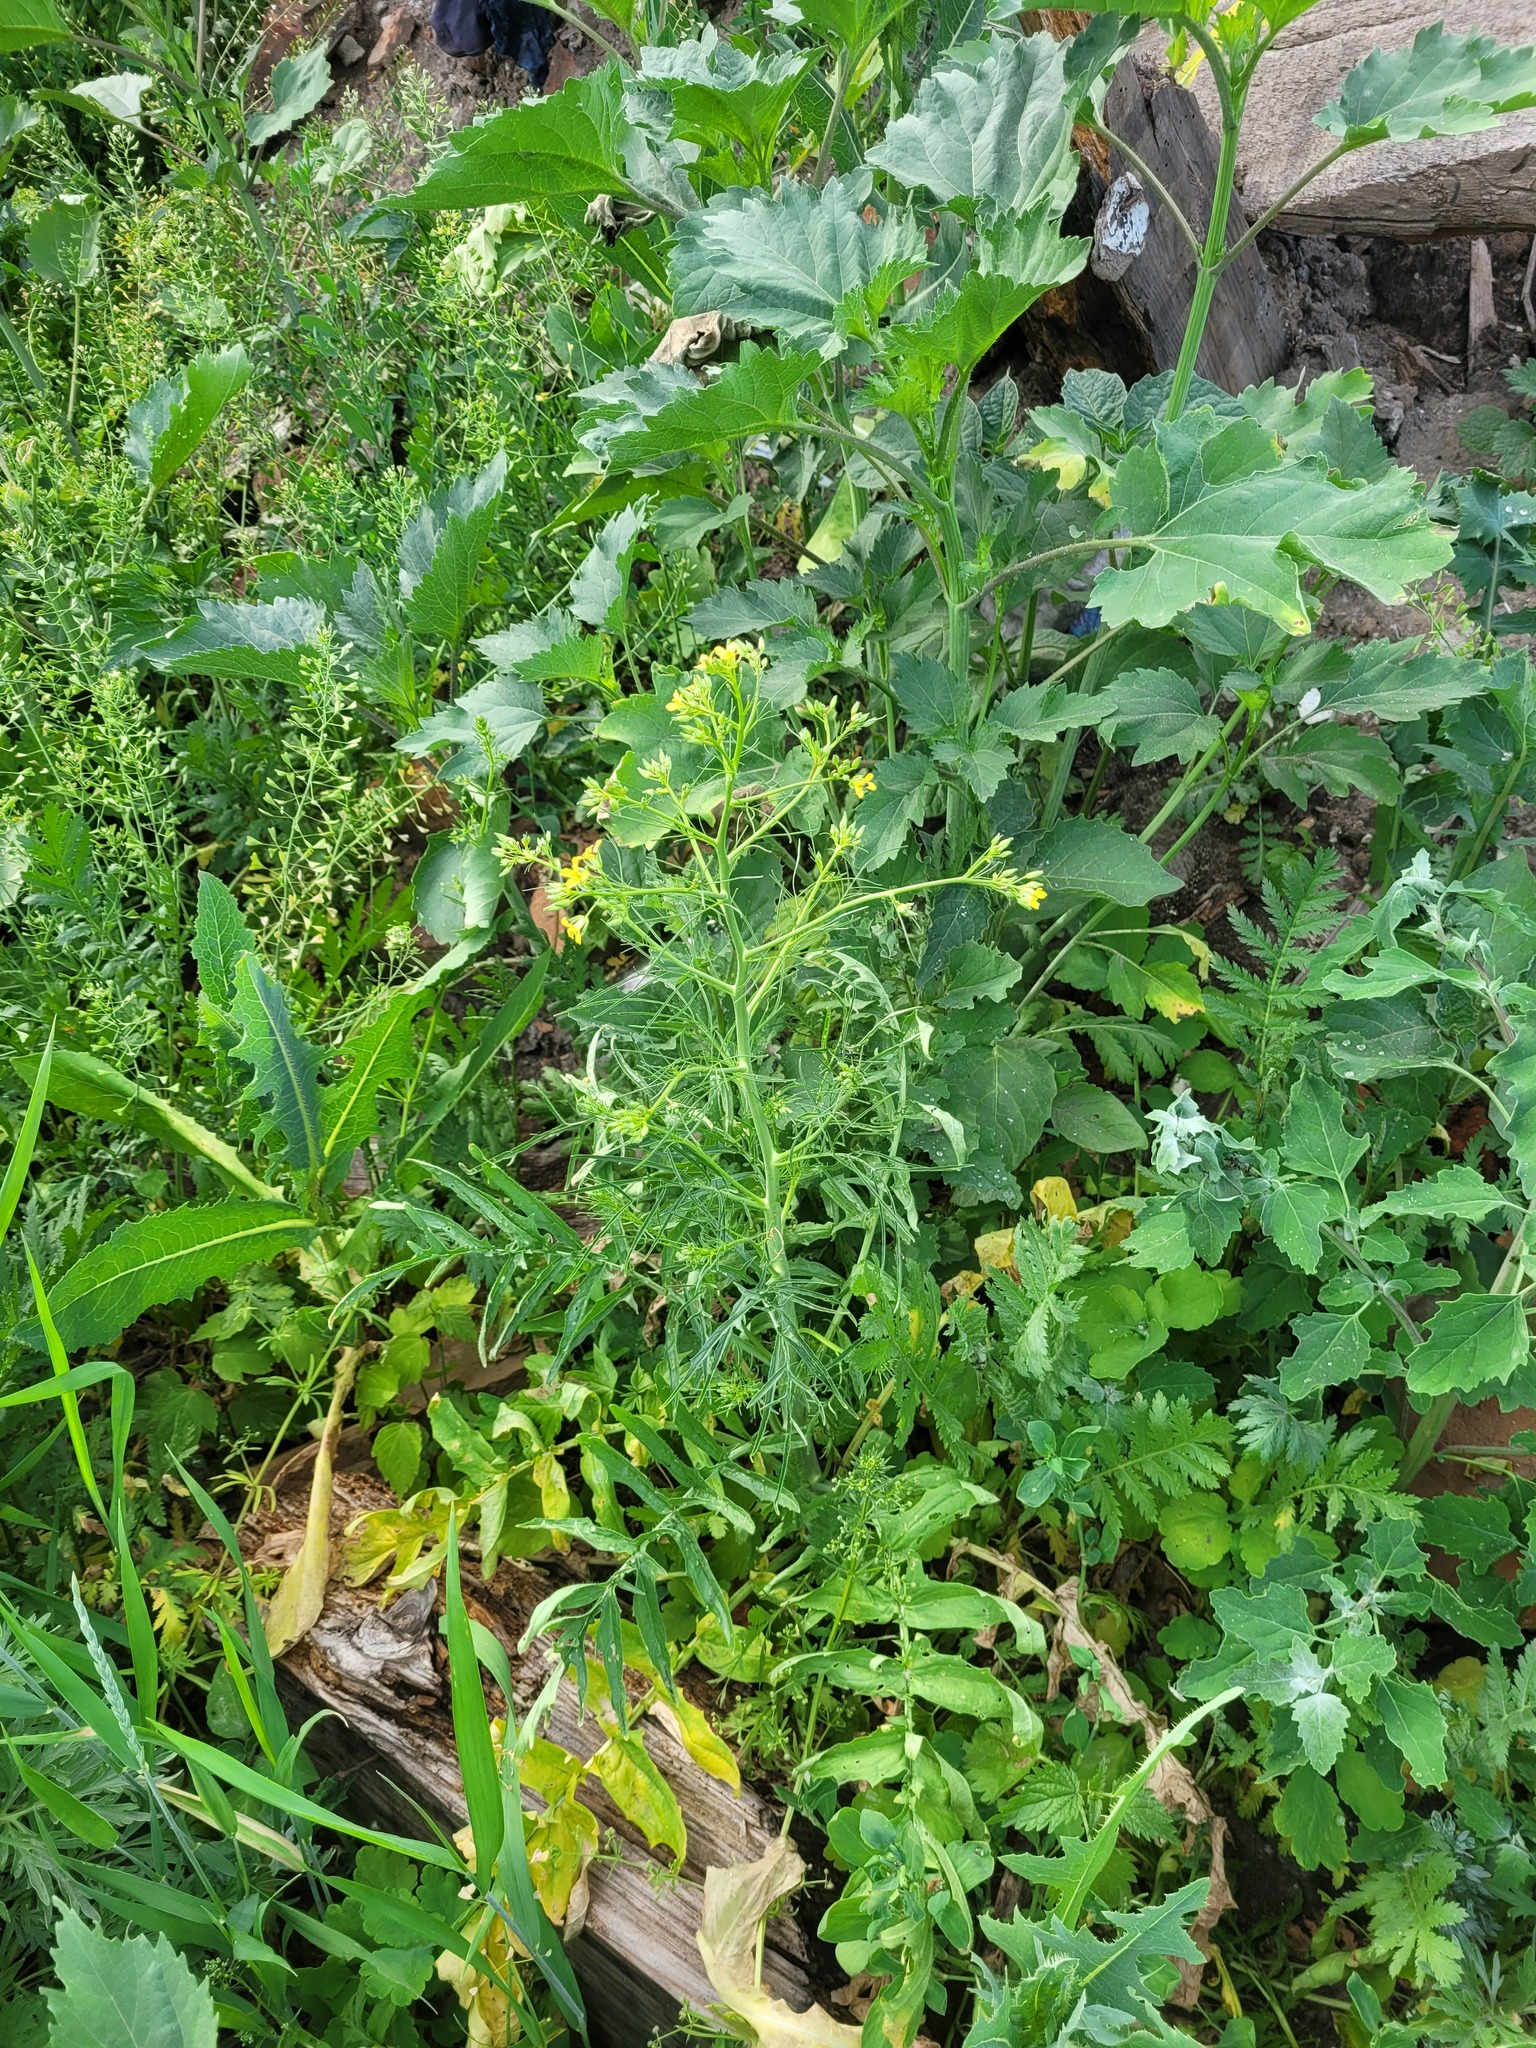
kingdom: Plantae
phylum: Tracheophyta
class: Magnoliopsida
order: Brassicales
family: Brassicaceae
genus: Sisymbrium
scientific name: Sisymbrium altissimum
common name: Tall rocket
